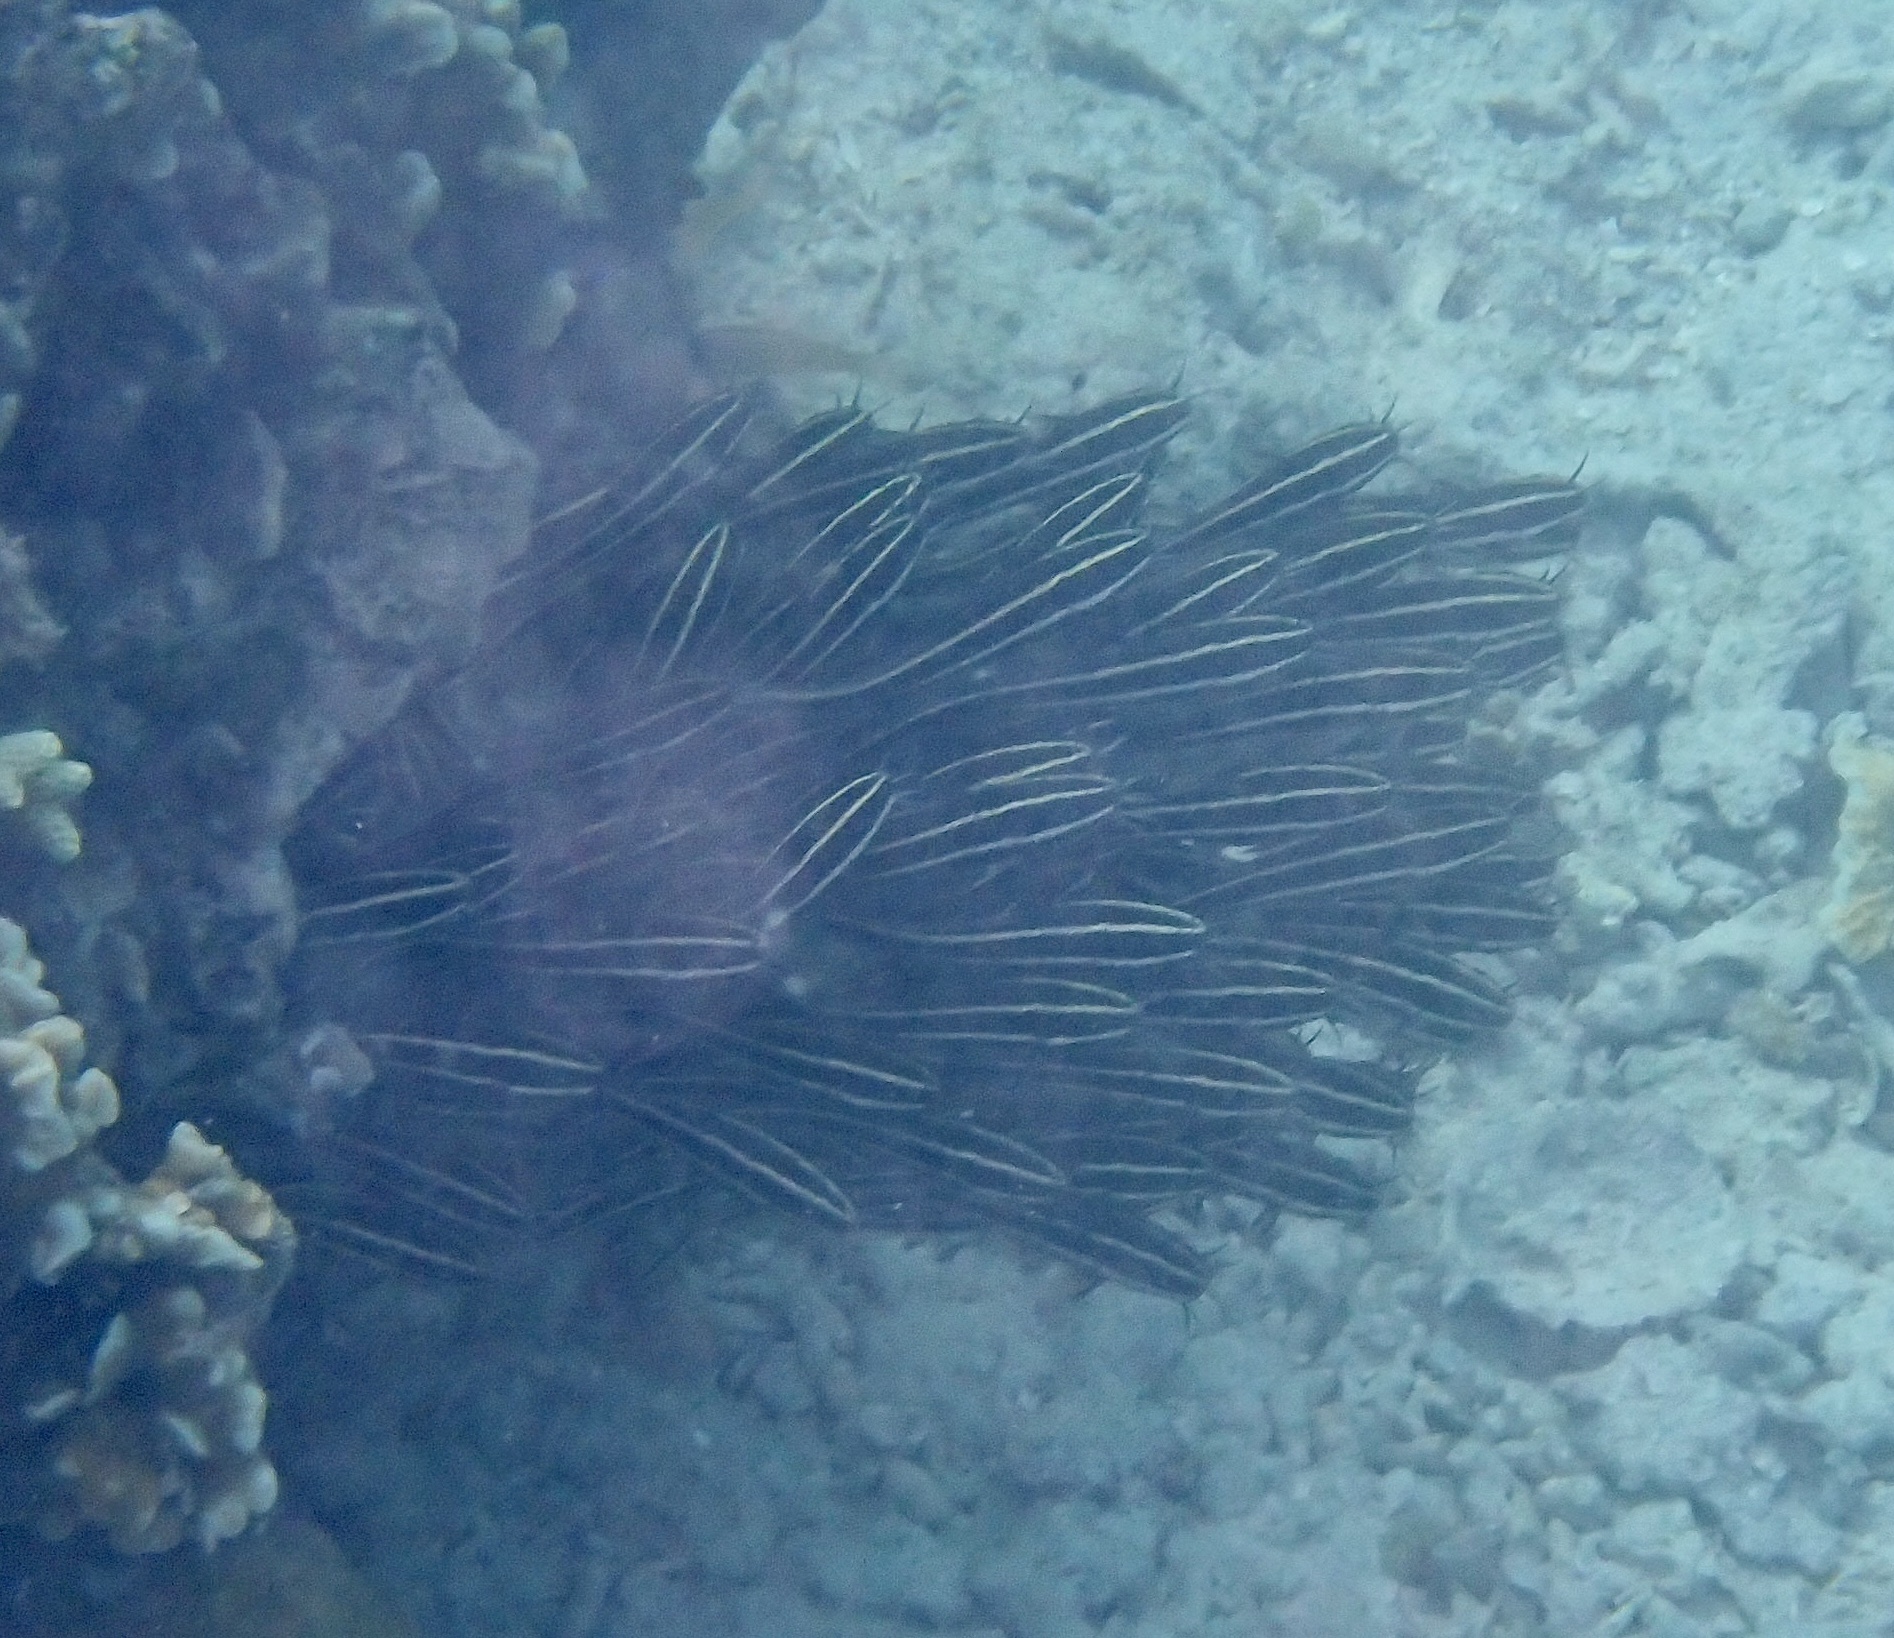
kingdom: Animalia
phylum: Chordata
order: Siluriformes
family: Plotosidae
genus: Plotosus
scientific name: Plotosus lineatus
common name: Striped eel catfish
